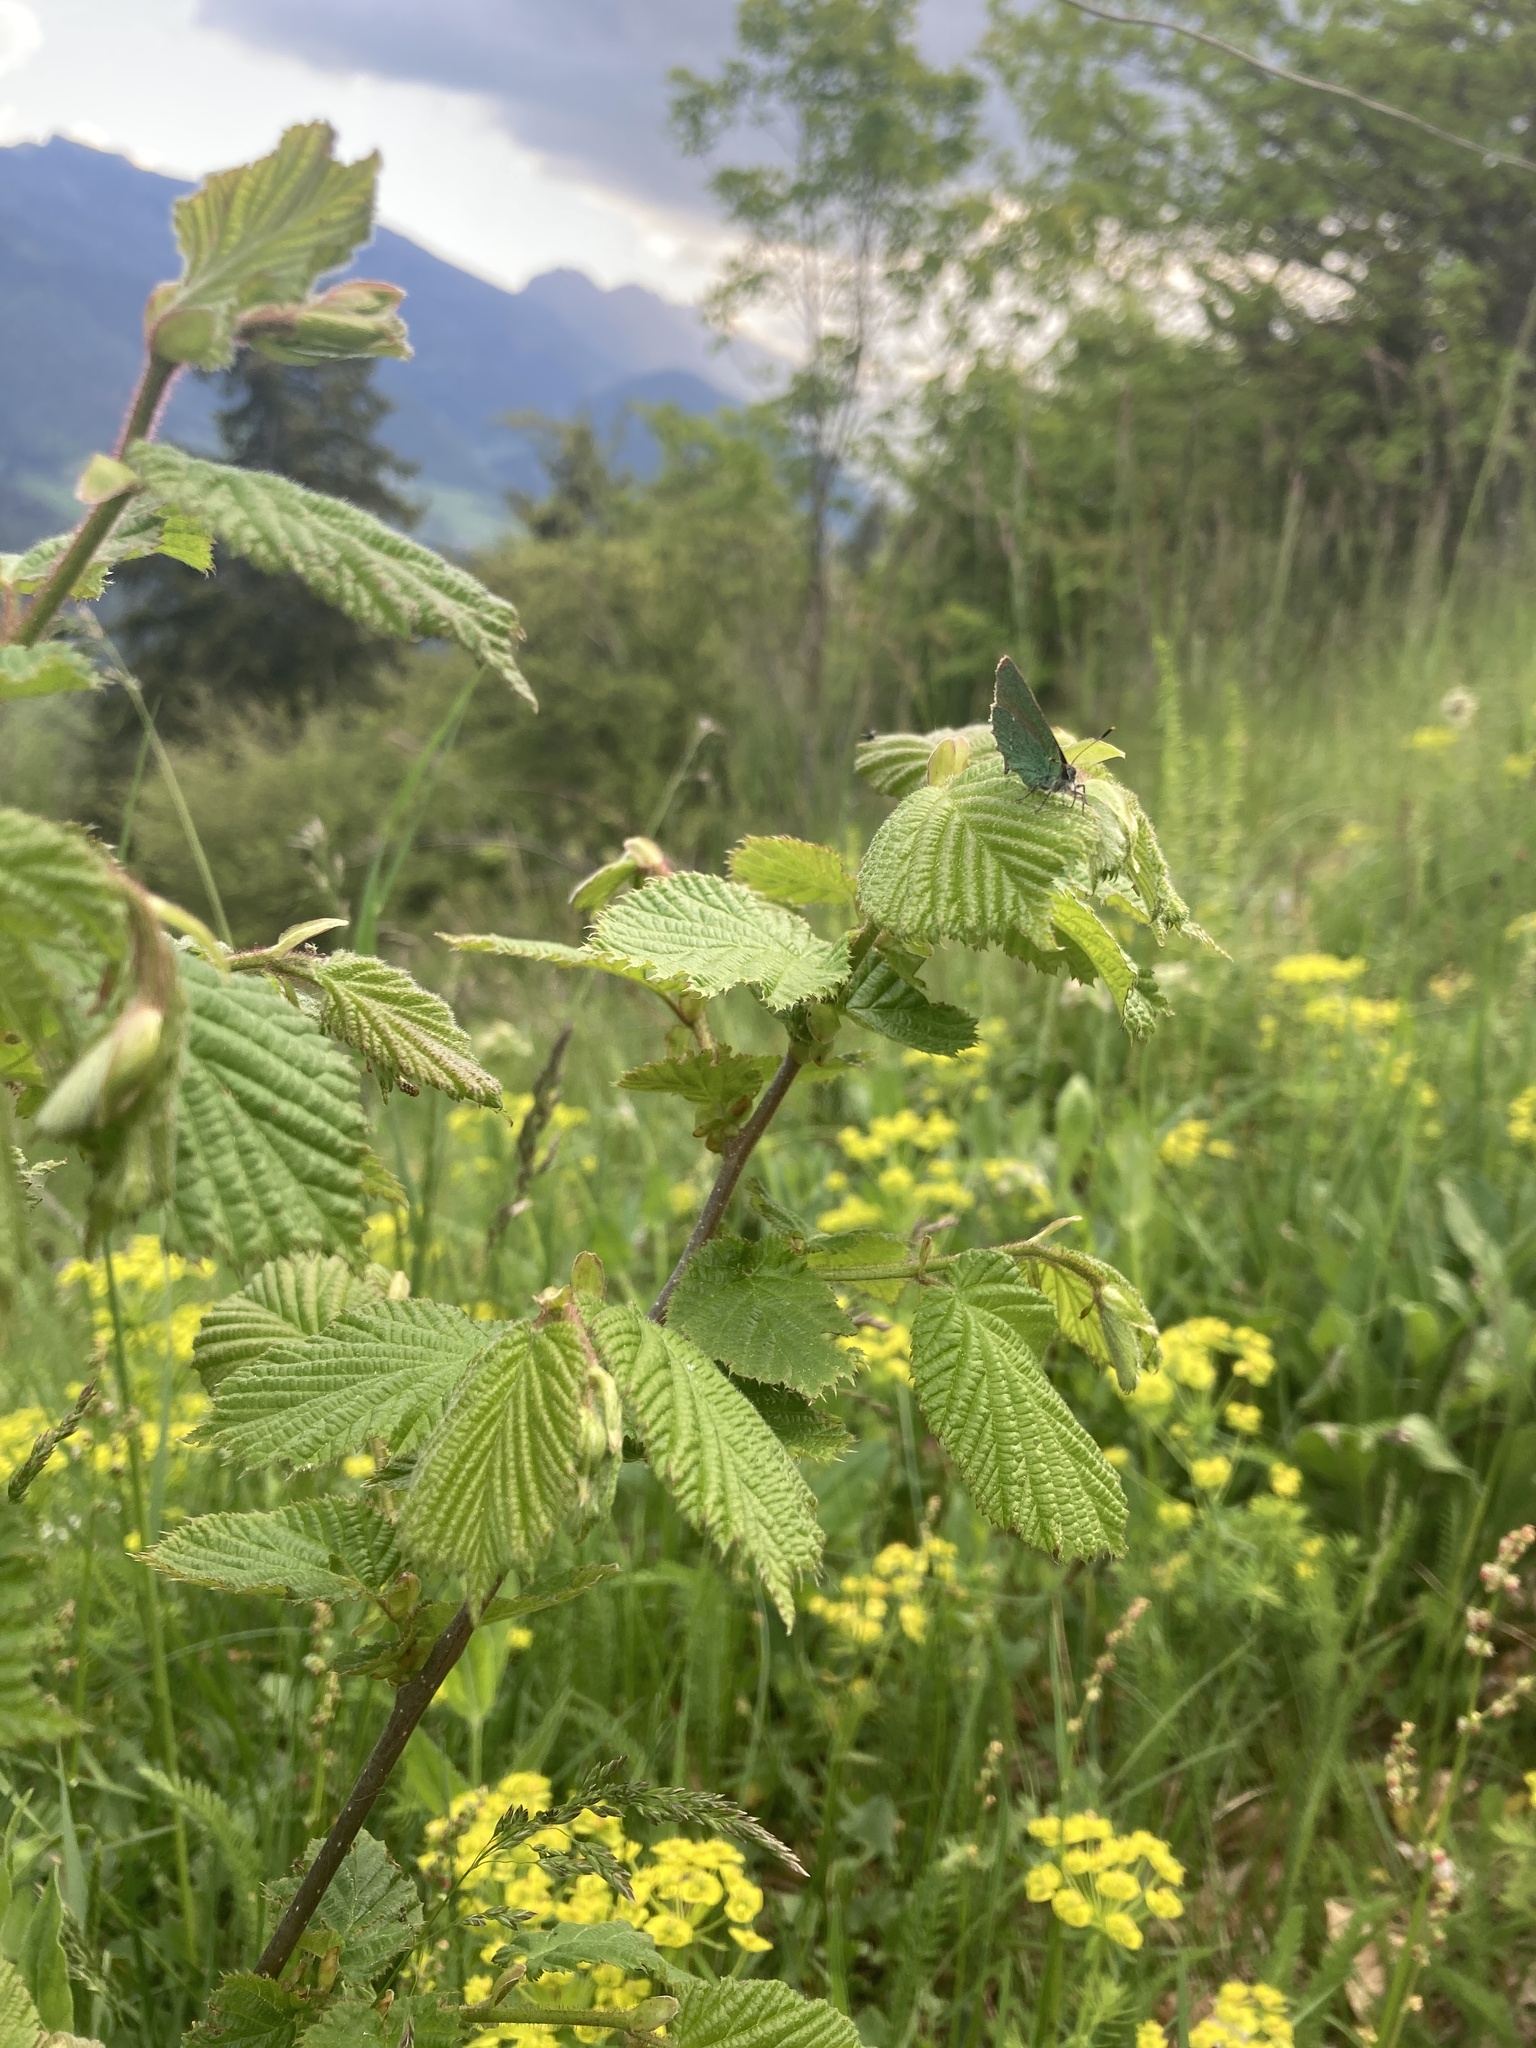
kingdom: Animalia
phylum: Arthropoda
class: Insecta
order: Lepidoptera
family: Lycaenidae
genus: Callophrys
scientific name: Callophrys rubi
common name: Green hairstreak
